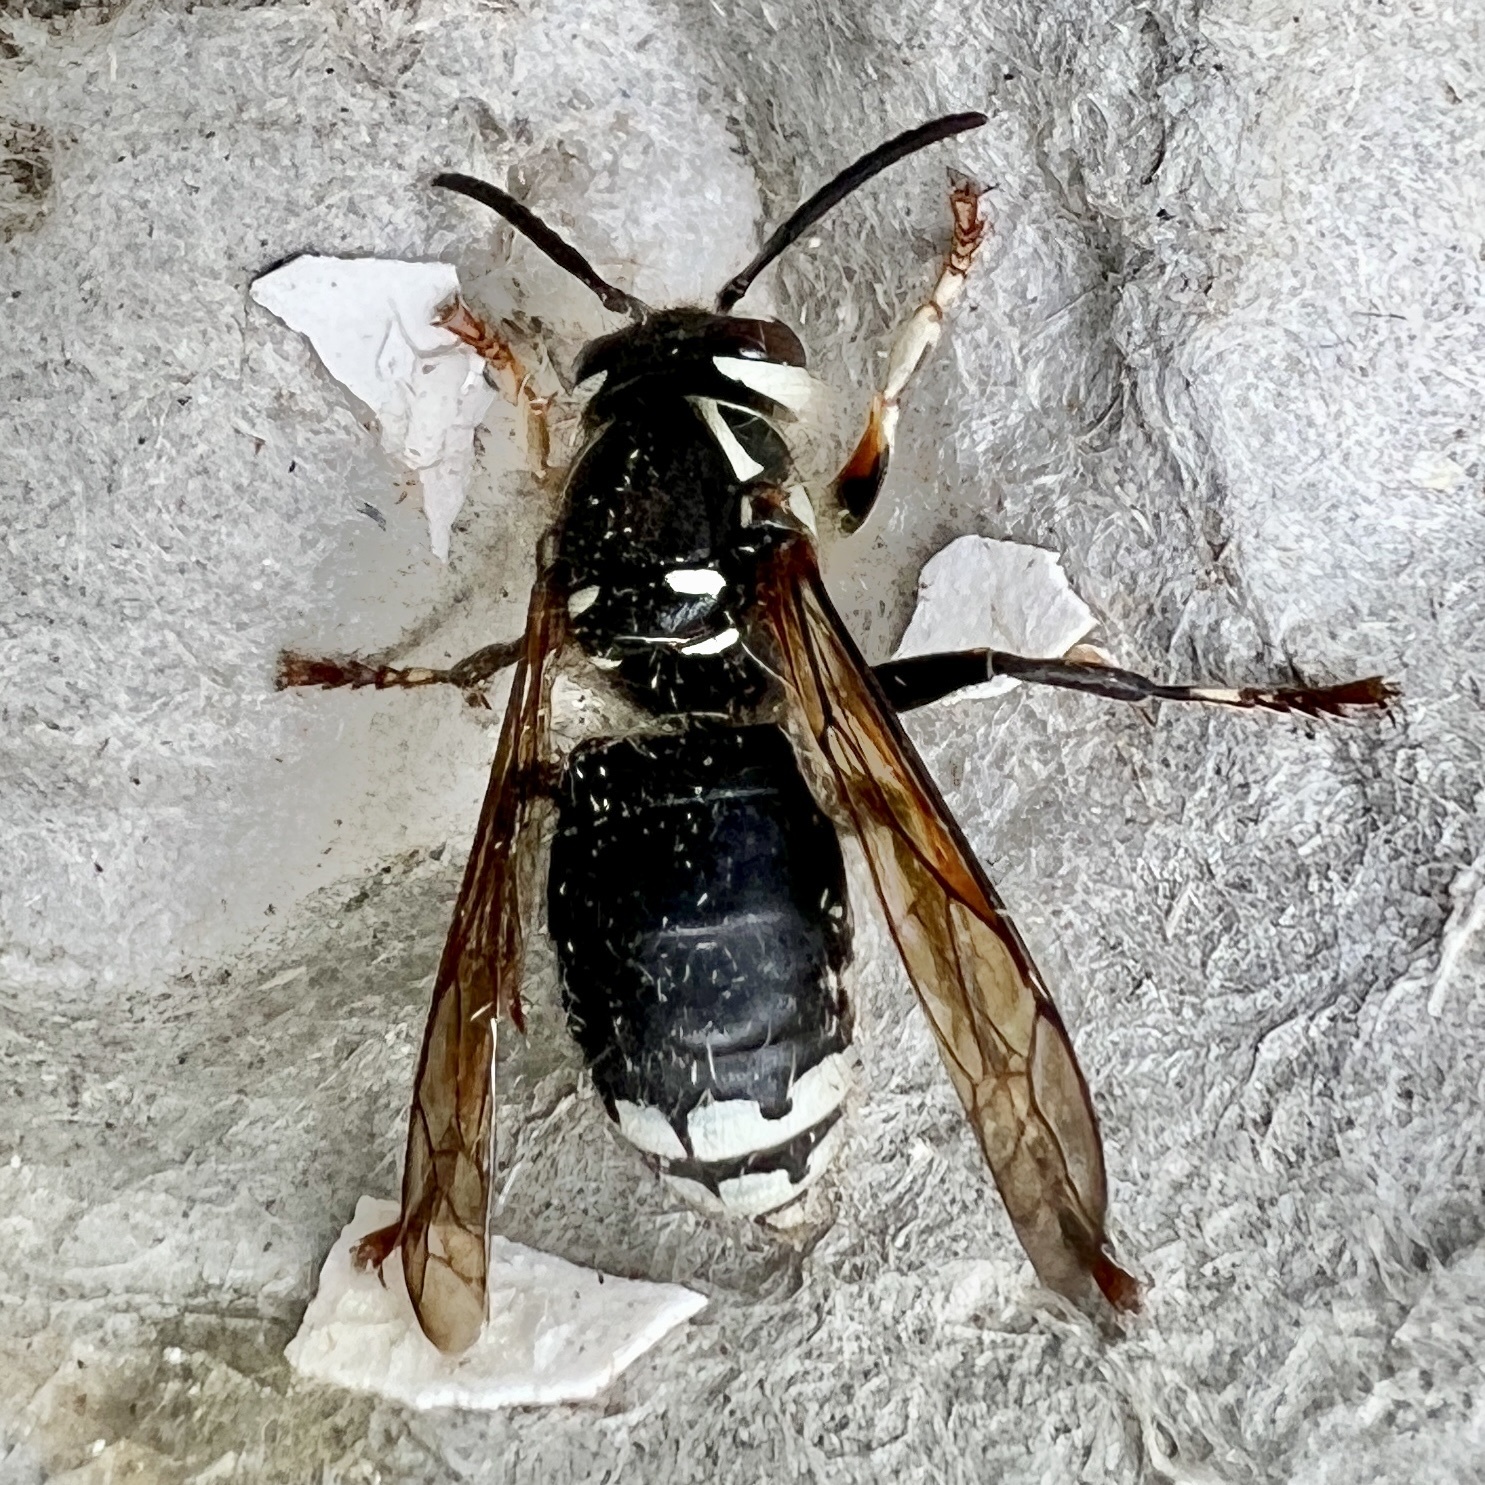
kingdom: Animalia
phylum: Arthropoda
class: Insecta
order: Hymenoptera
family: Vespidae
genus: Dolichovespula
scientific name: Dolichovespula maculata
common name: Bald-faced hornet
